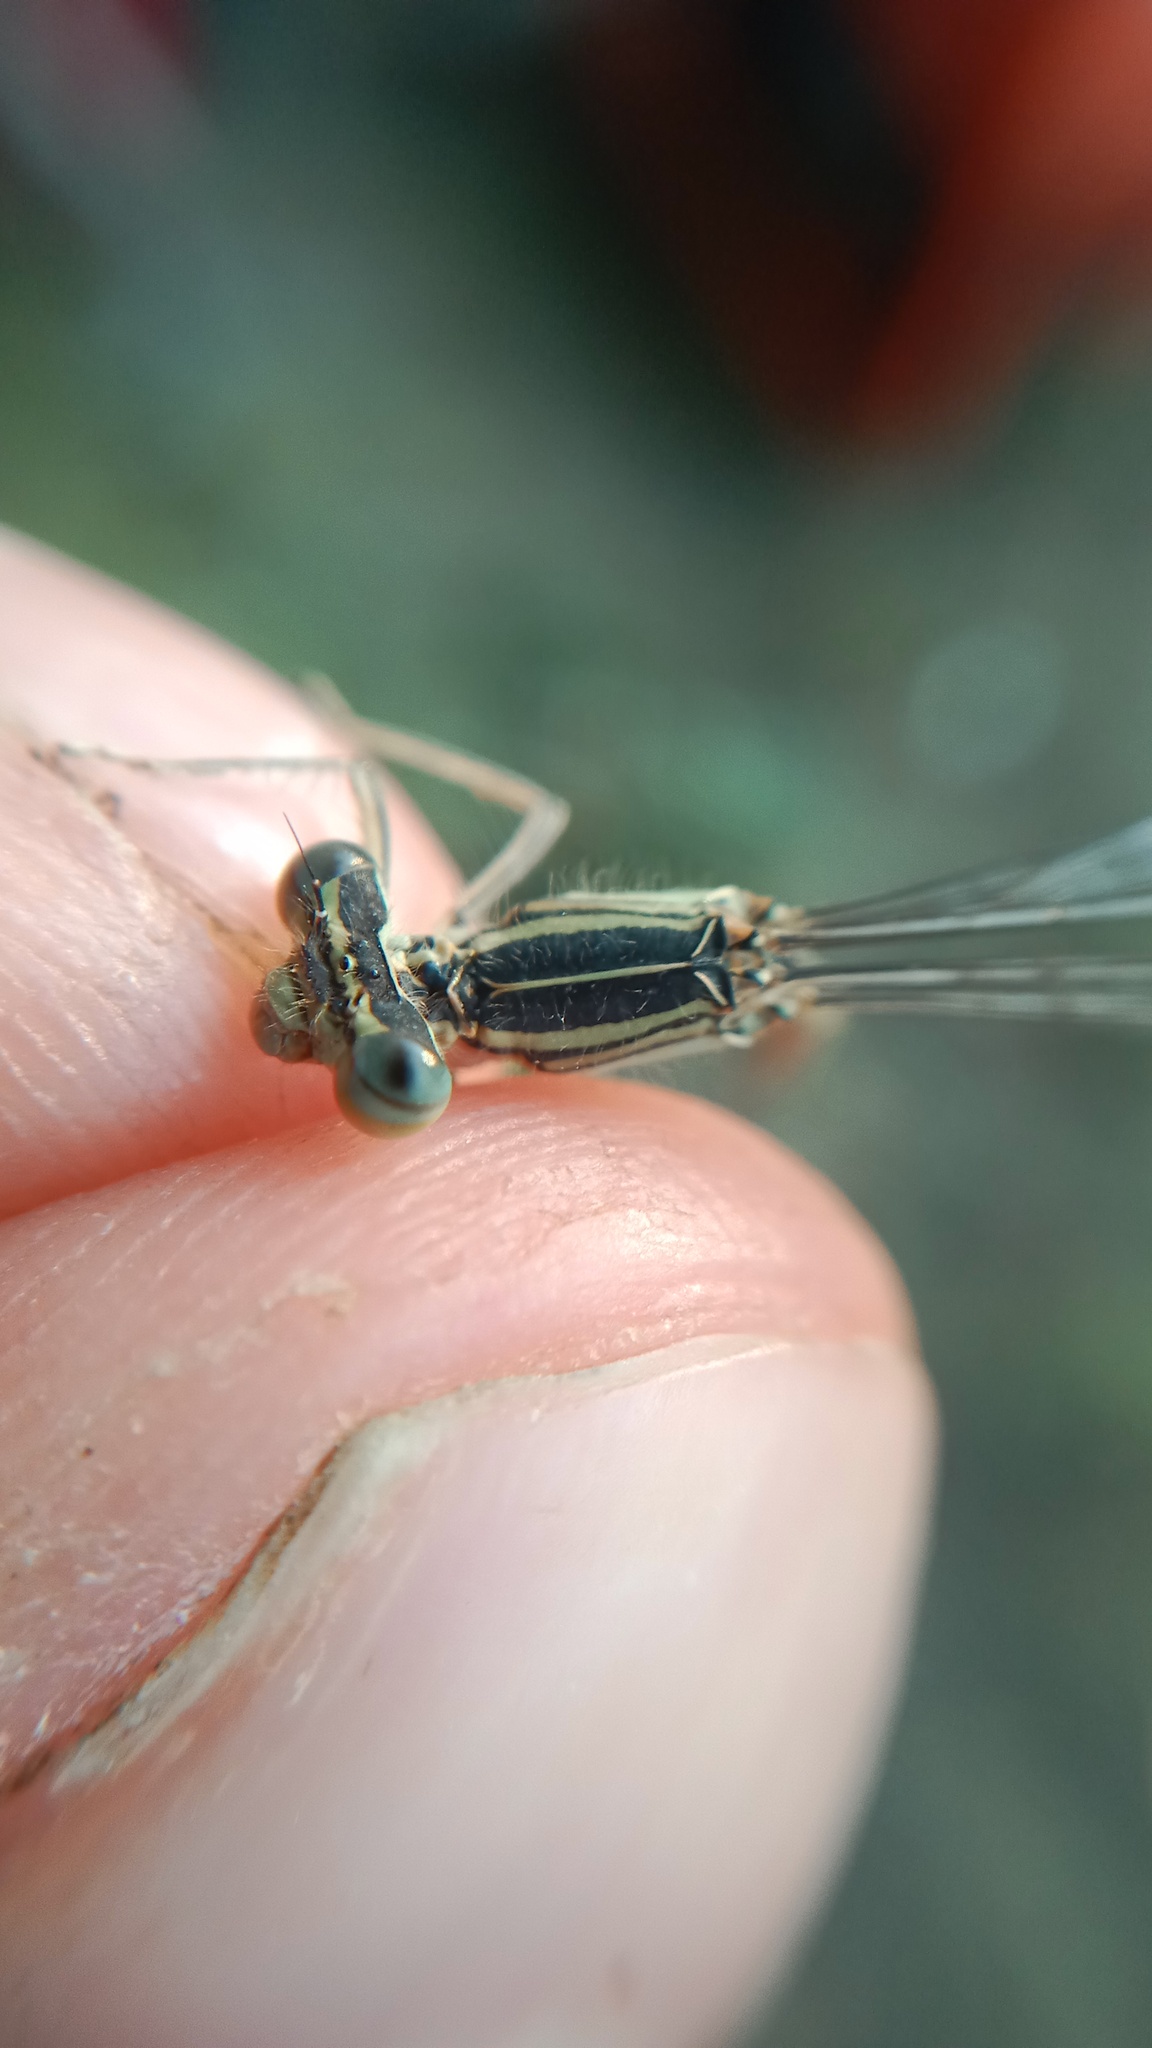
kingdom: Animalia
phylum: Arthropoda
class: Insecta
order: Odonata
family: Platycnemididae
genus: Platycnemis
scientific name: Platycnemis pennipes
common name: White-legged damselfly
